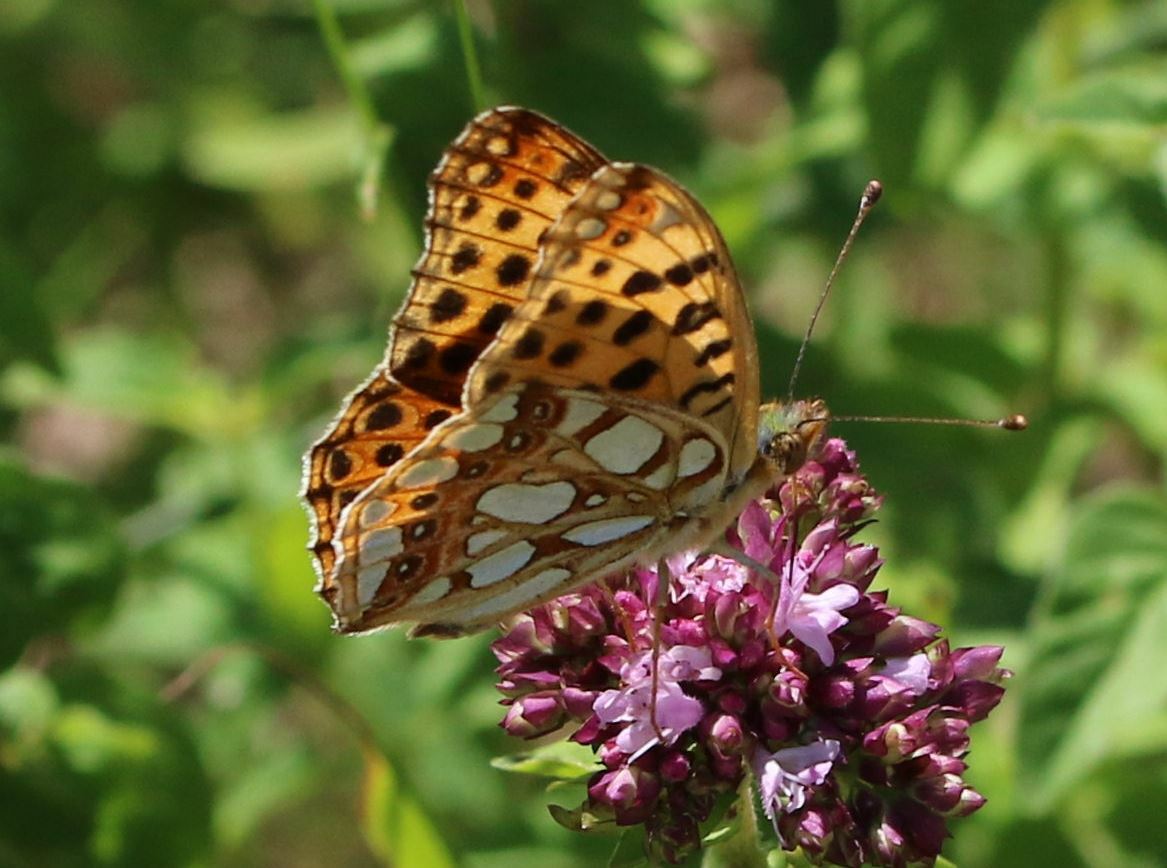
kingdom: Animalia
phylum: Arthropoda
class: Insecta
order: Lepidoptera
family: Nymphalidae
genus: Issoria
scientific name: Issoria lathonia
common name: Queen of spain fritillary
